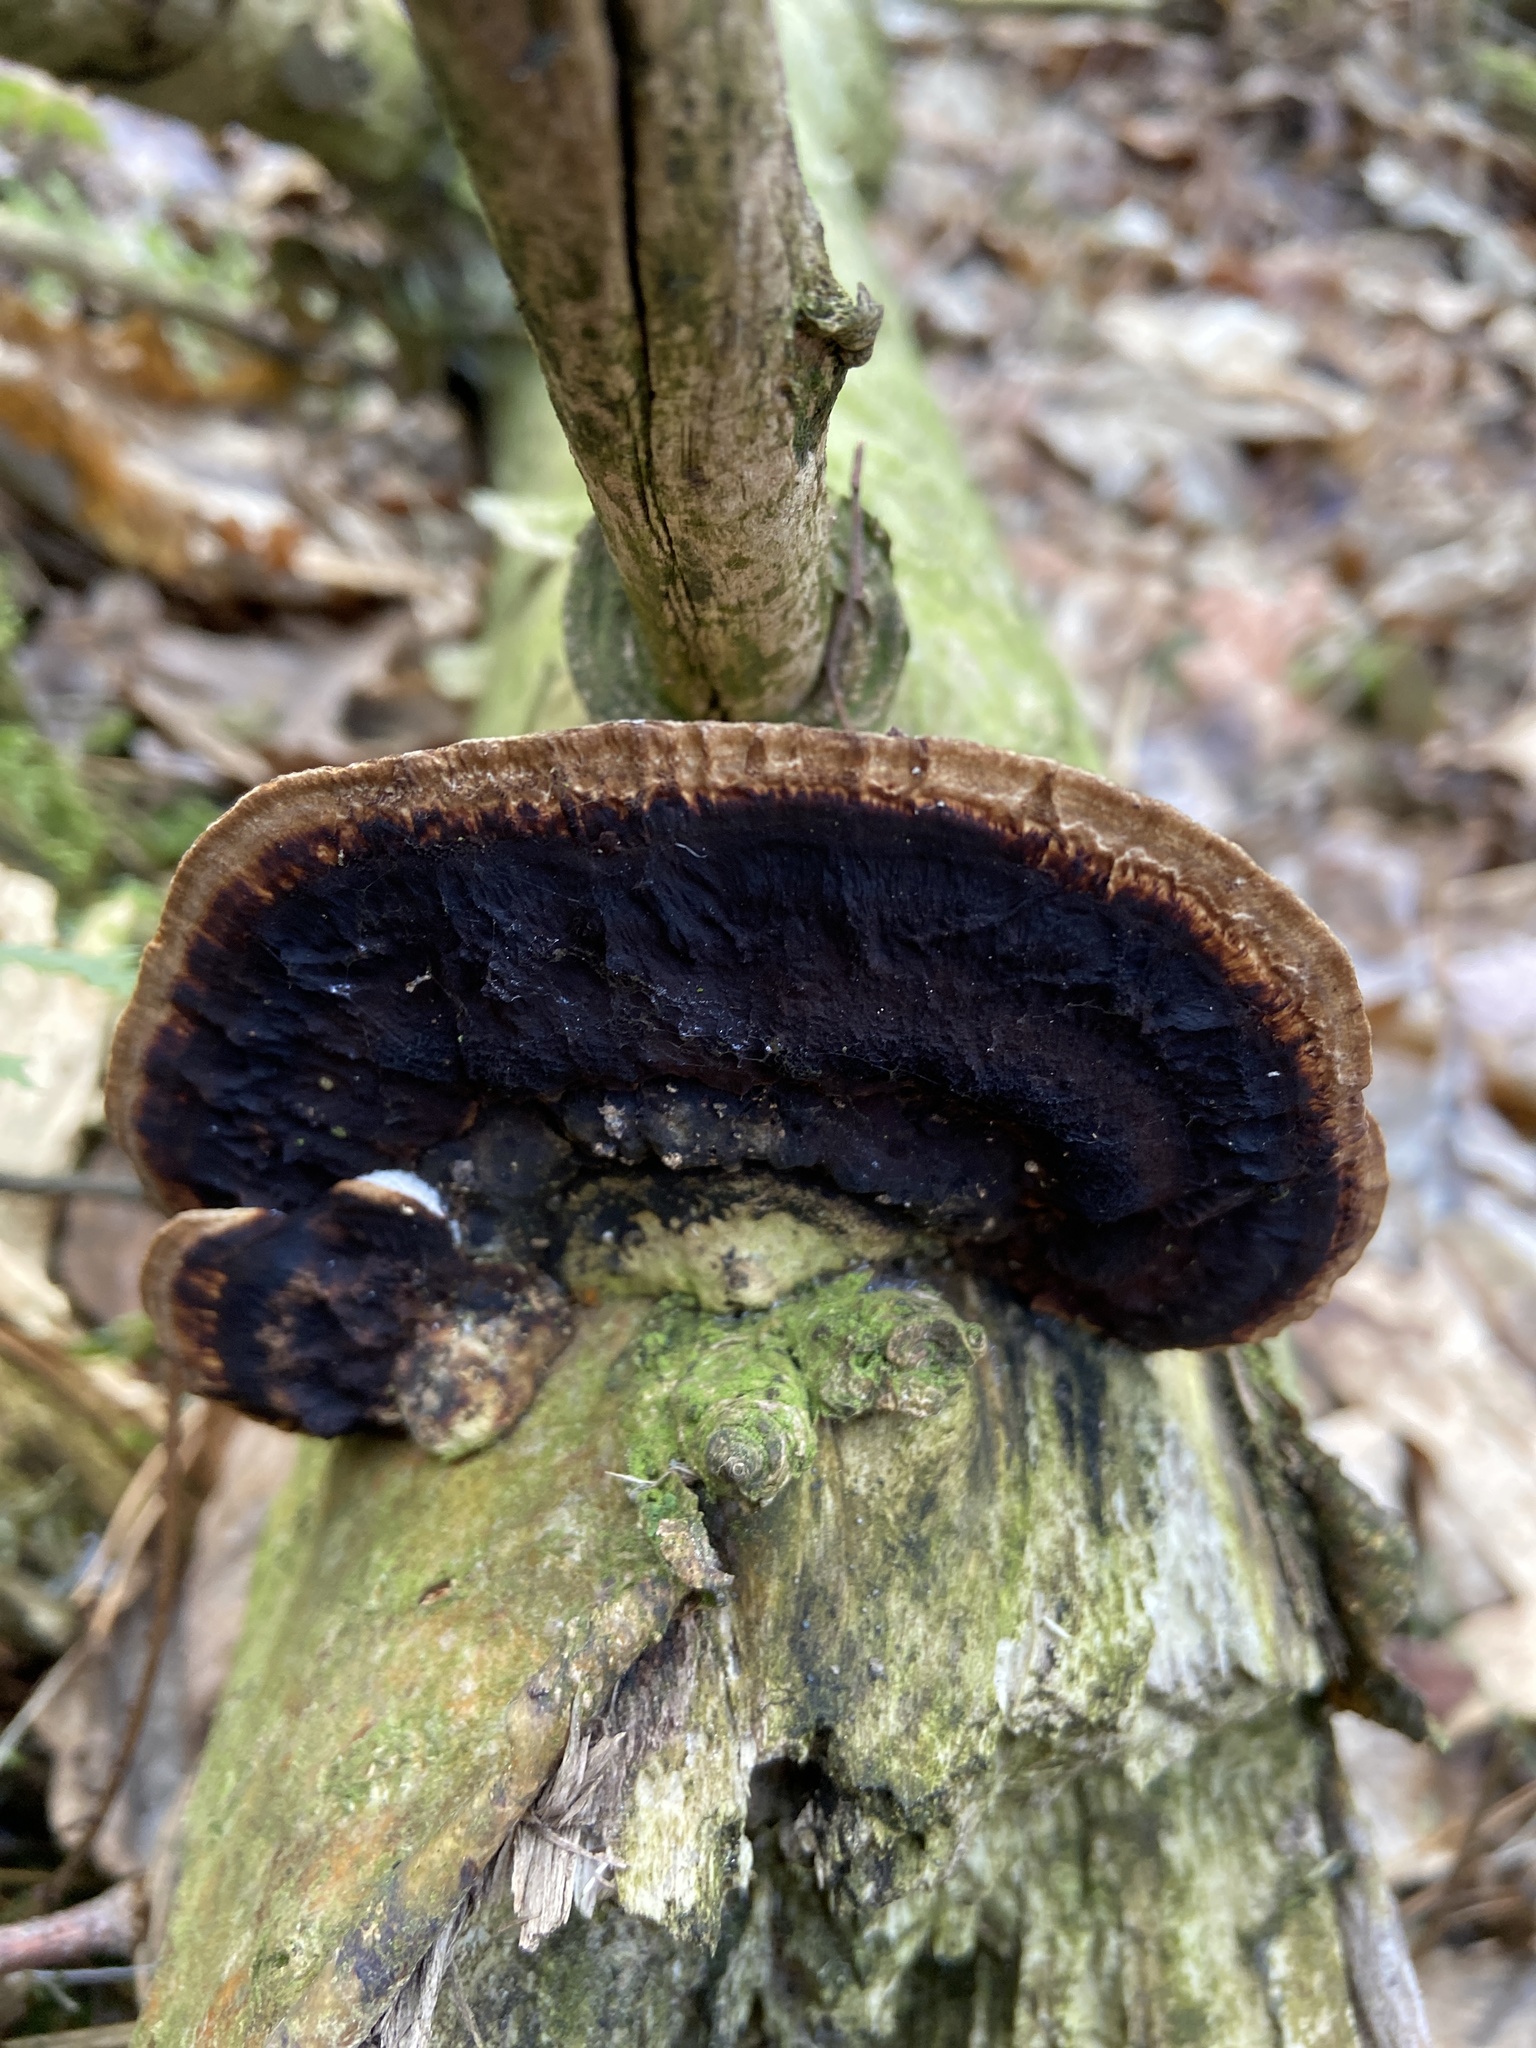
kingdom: Fungi
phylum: Basidiomycota
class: Agaricomycetes
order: Polyporales
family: Polyporaceae
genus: Daedaleopsis
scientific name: Daedaleopsis confragosa
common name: Blushing bracket
